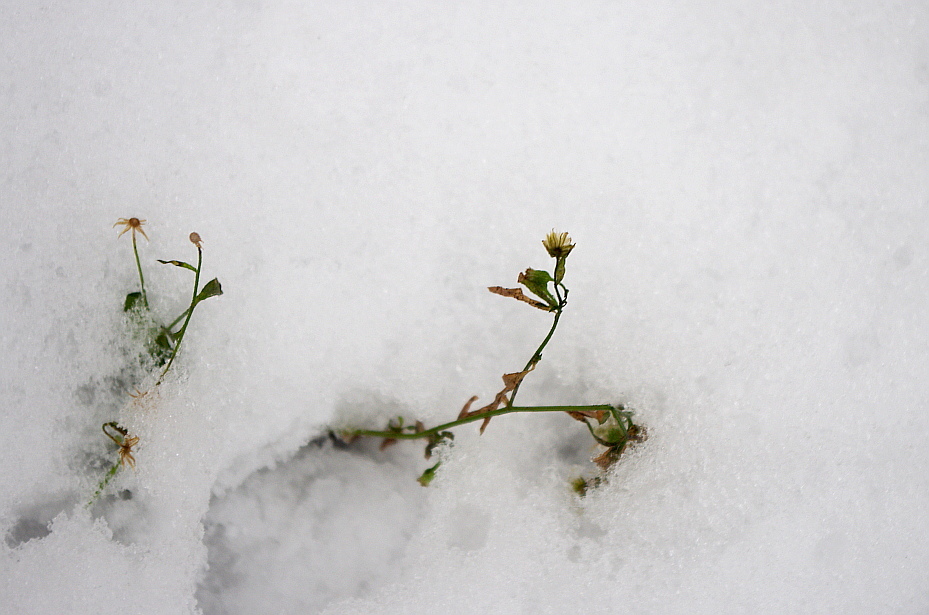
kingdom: Plantae
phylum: Tracheophyta
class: Magnoliopsida
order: Asterales
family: Asteraceae
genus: Erigeron
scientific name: Erigeron canadensis
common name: Canadian fleabane
